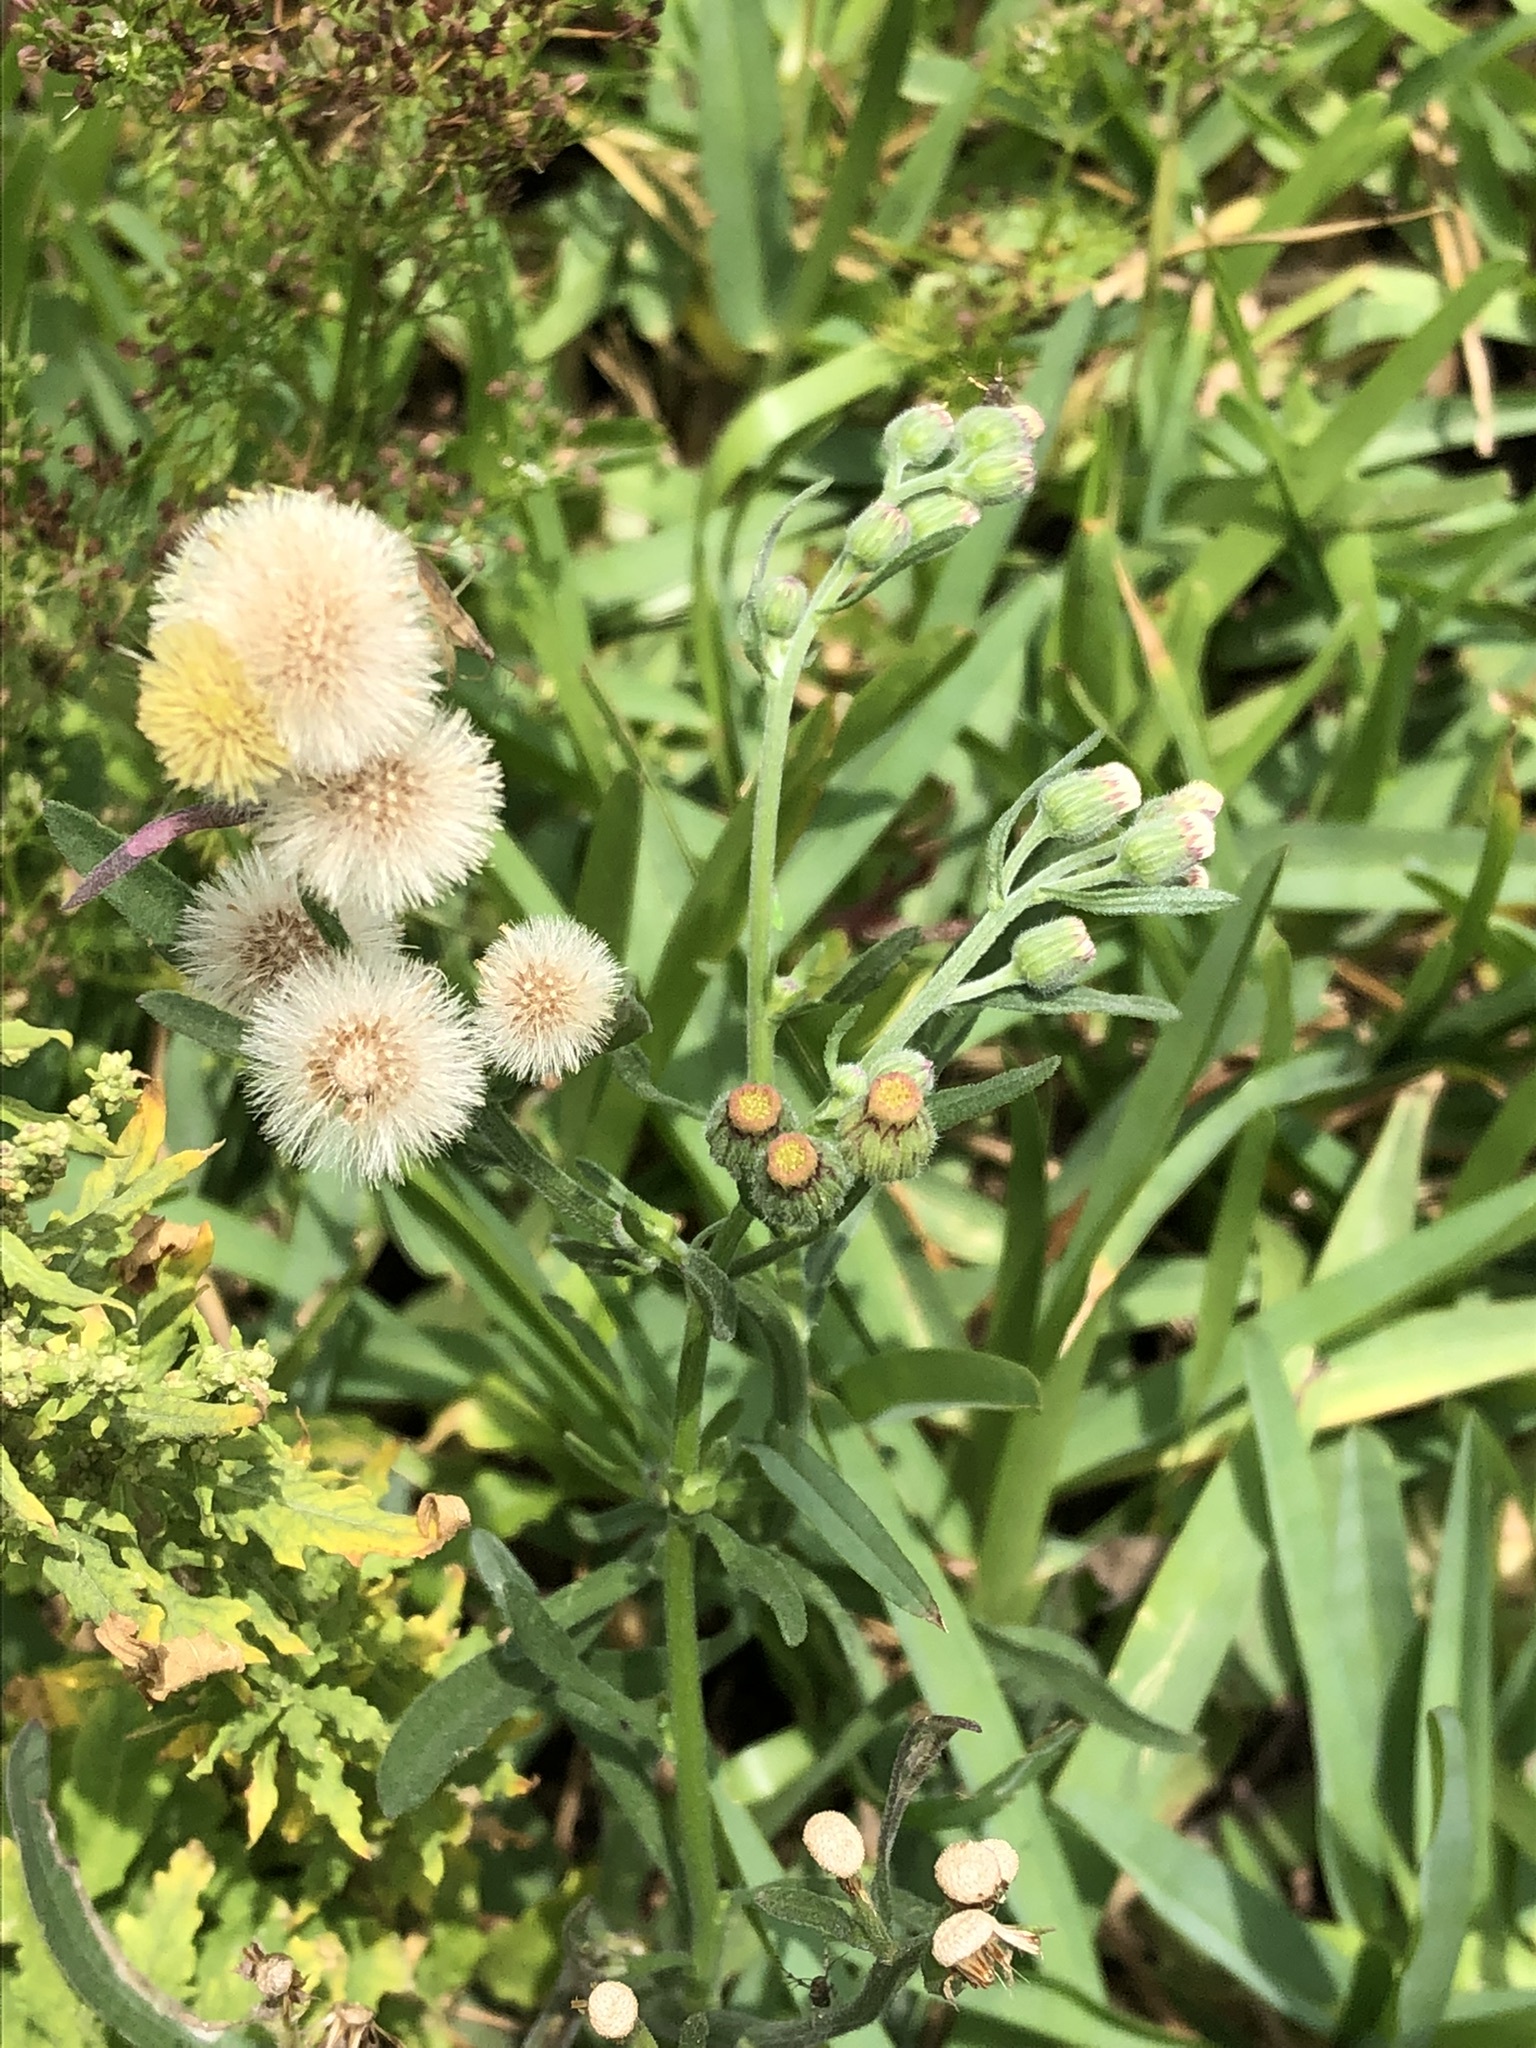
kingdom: Plantae
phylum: Tracheophyta
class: Magnoliopsida
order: Asterales
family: Asteraceae
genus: Erigeron
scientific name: Erigeron bonariensis
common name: Argentine fleabane
